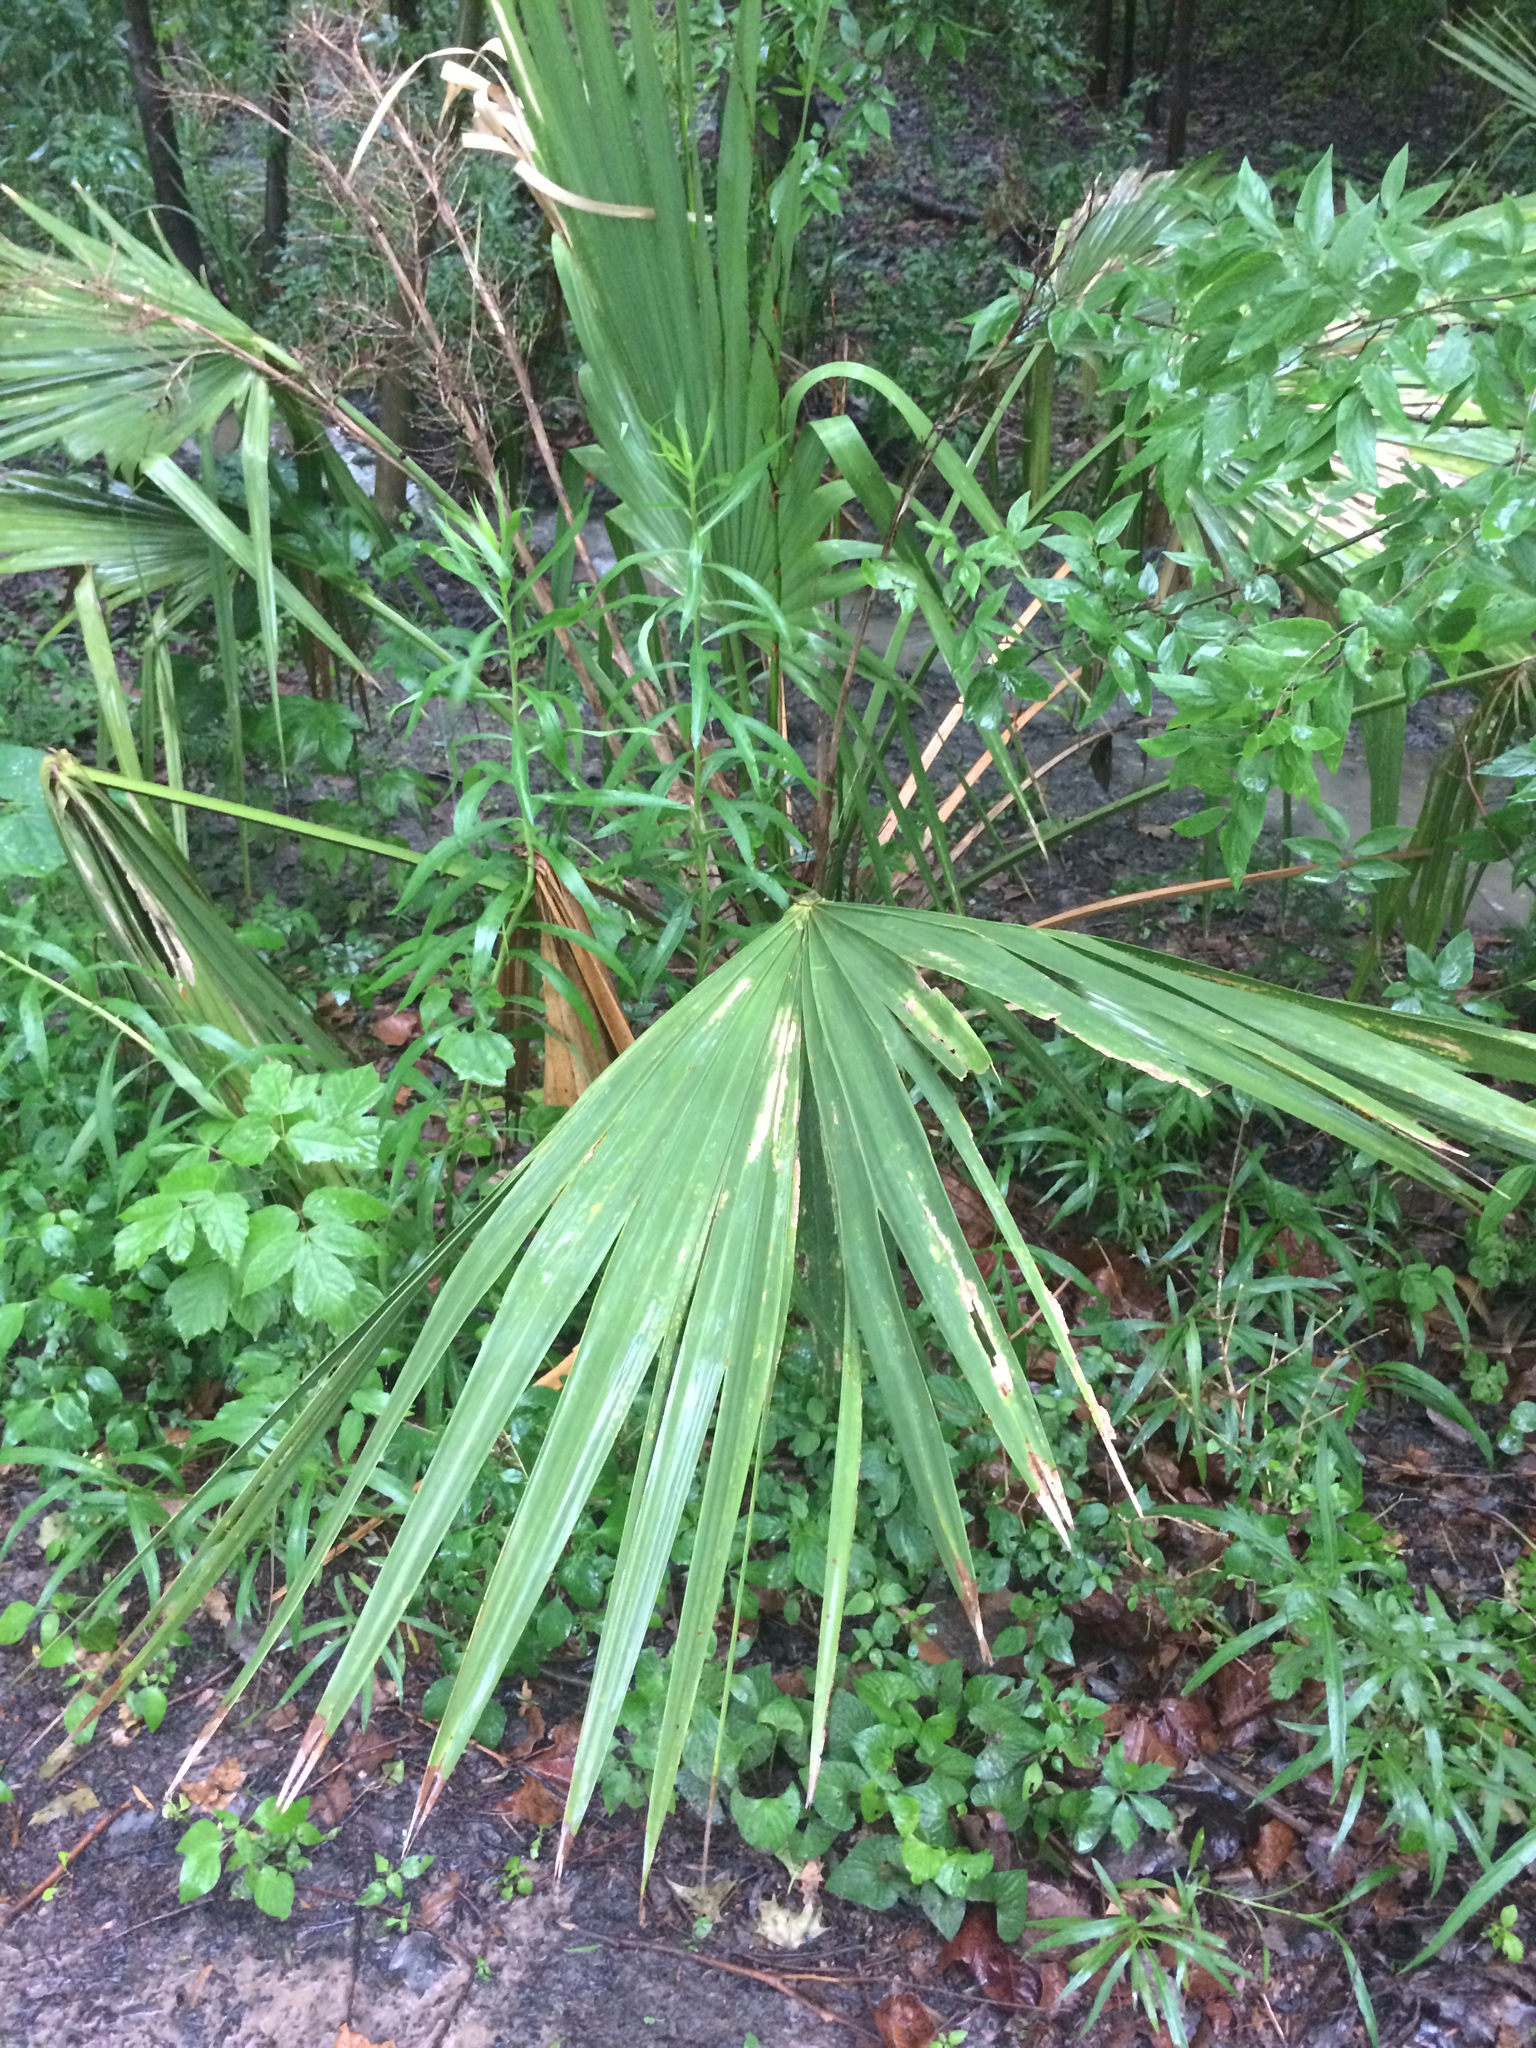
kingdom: Plantae
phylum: Tracheophyta
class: Liliopsida
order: Arecales
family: Arecaceae
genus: Sabal
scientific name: Sabal minor
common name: Dwarf palmetto
